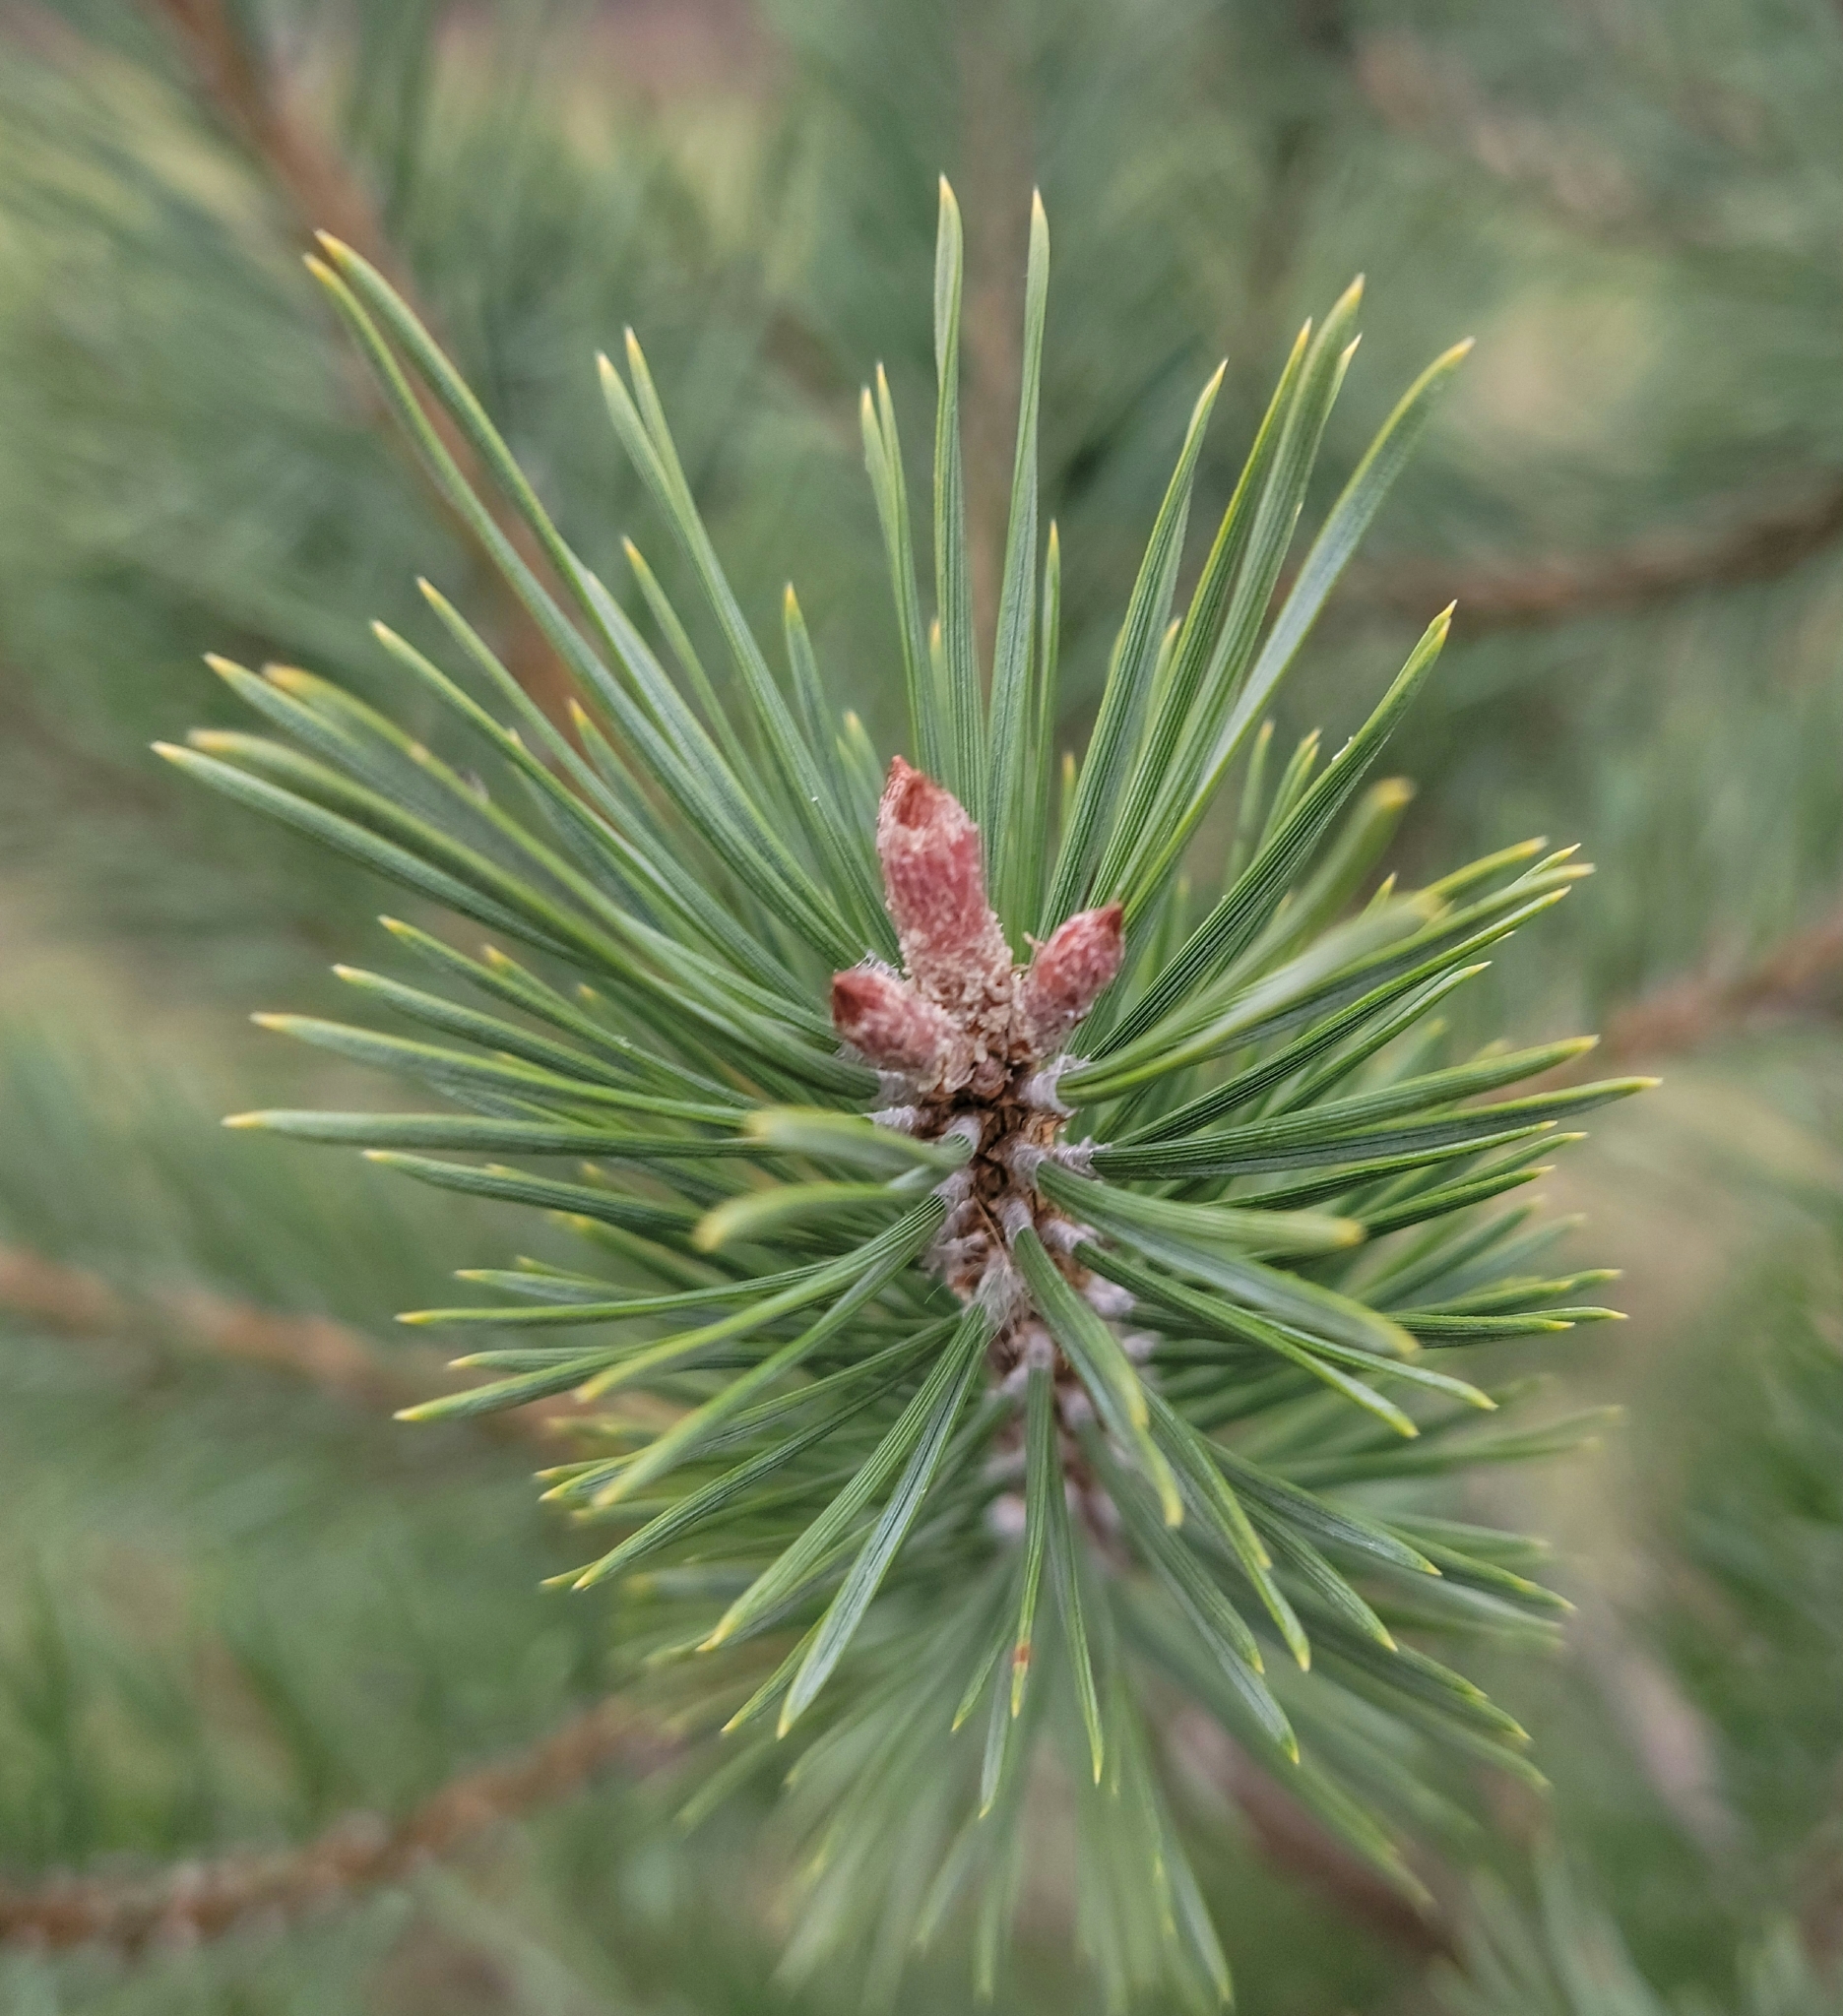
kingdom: Plantae
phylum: Tracheophyta
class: Pinopsida
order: Pinales
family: Pinaceae
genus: Pinus
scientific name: Pinus sylvestris
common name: Scots pine
